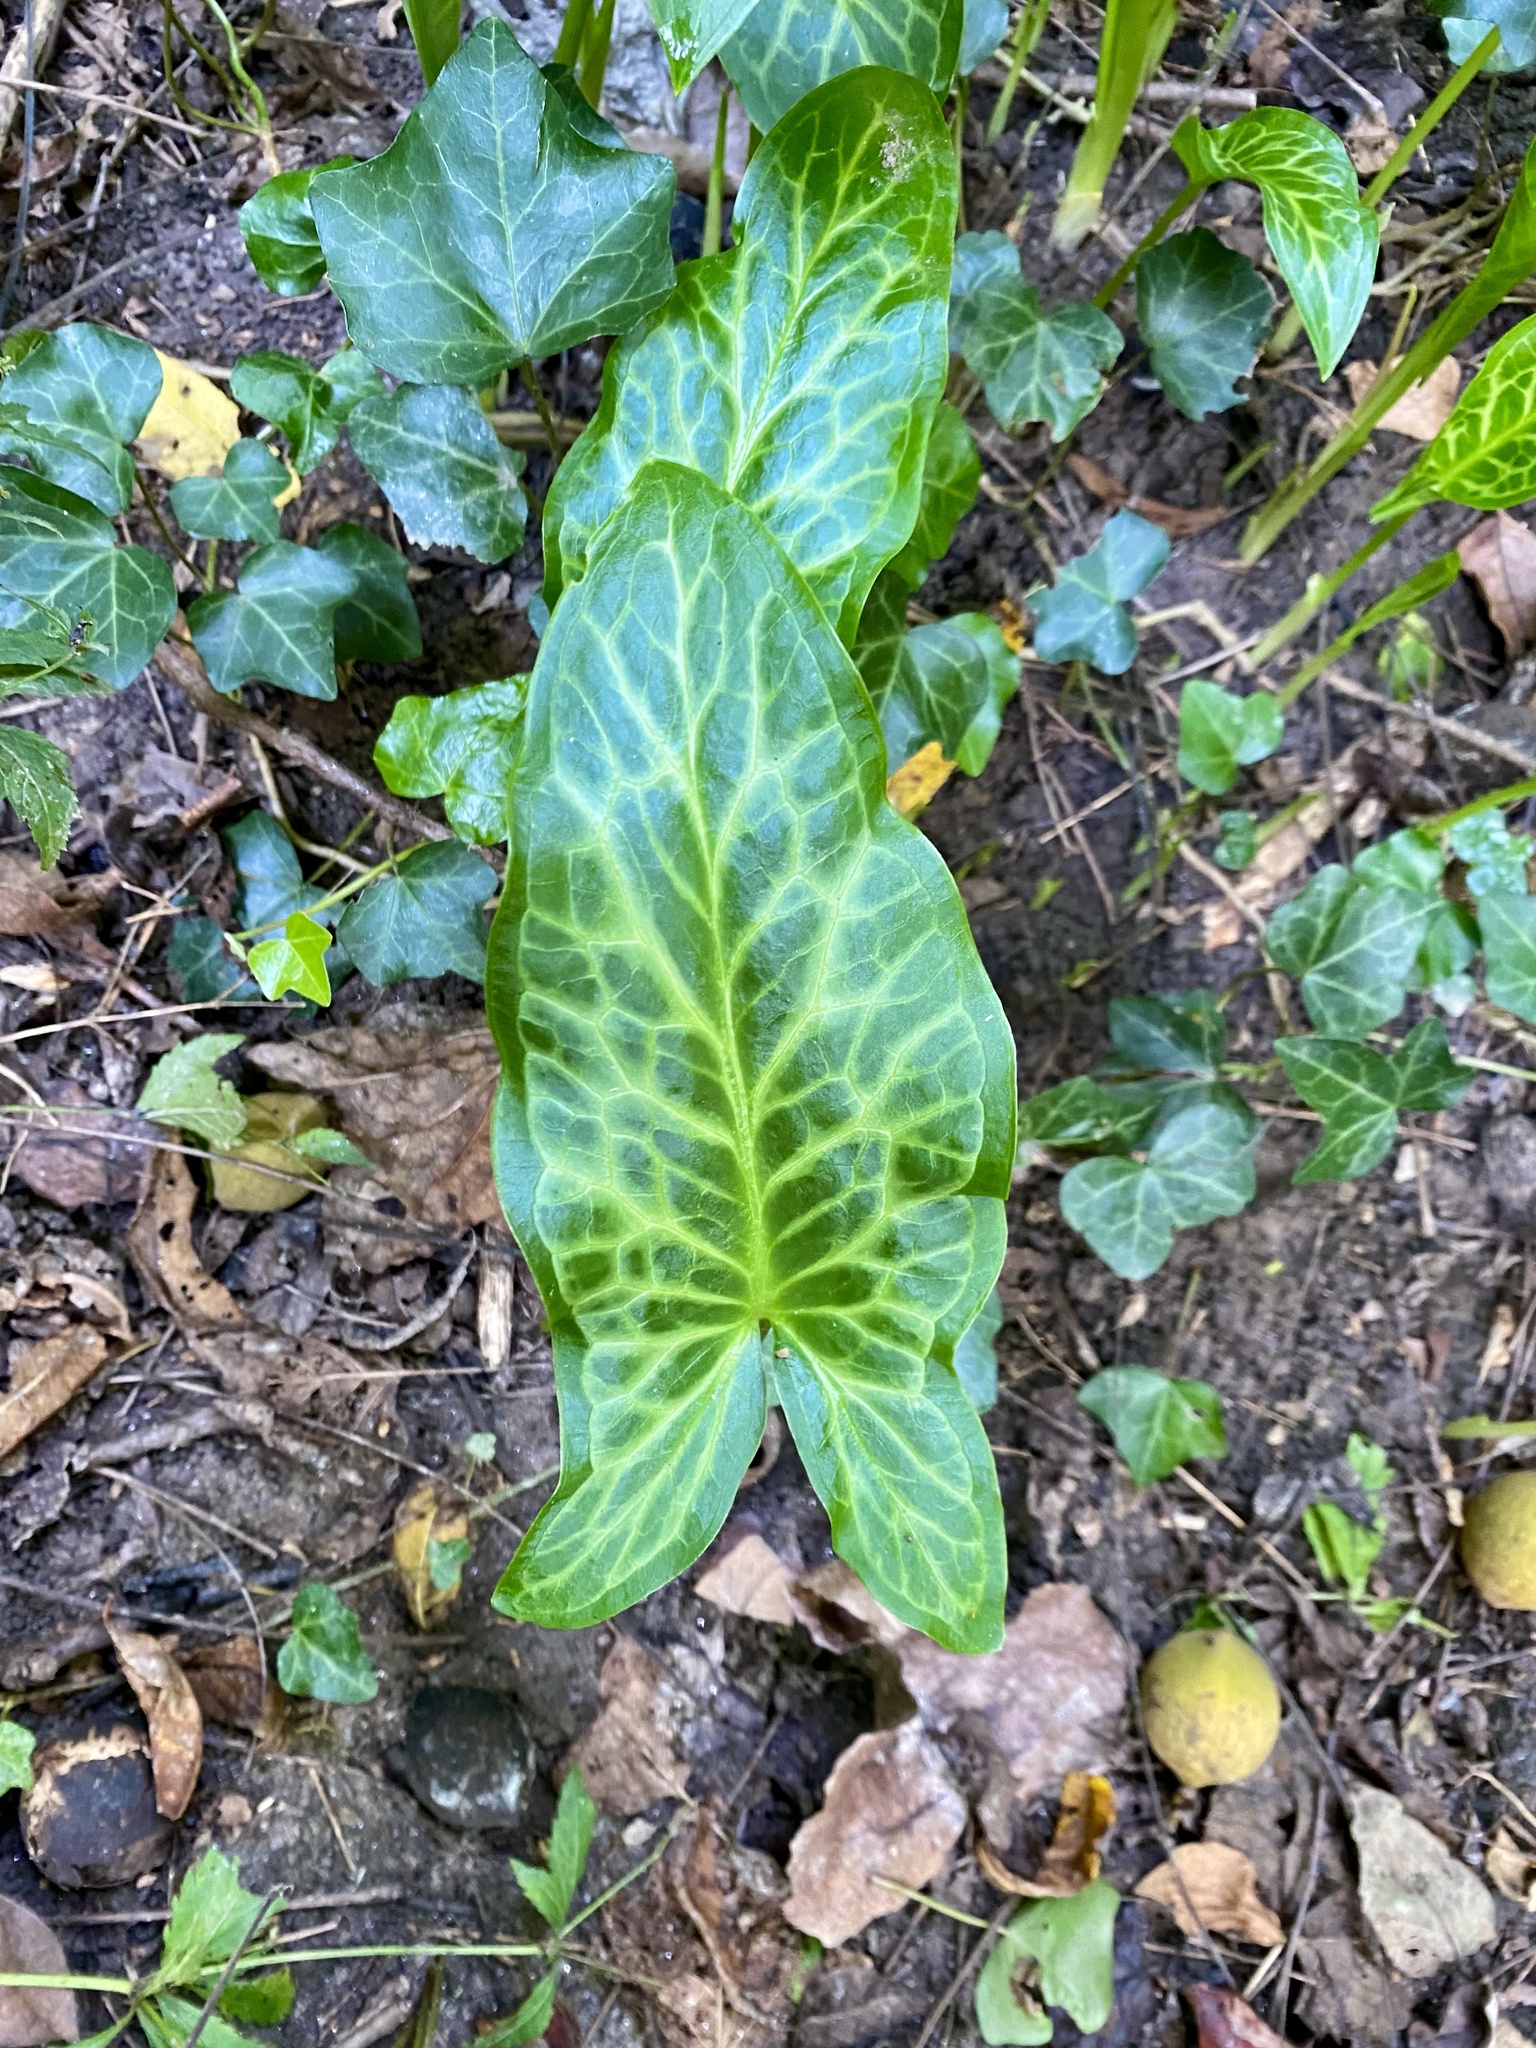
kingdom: Plantae
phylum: Tracheophyta
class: Liliopsida
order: Alismatales
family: Araceae
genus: Arum
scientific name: Arum italicum
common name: Italian lords-and-ladies
